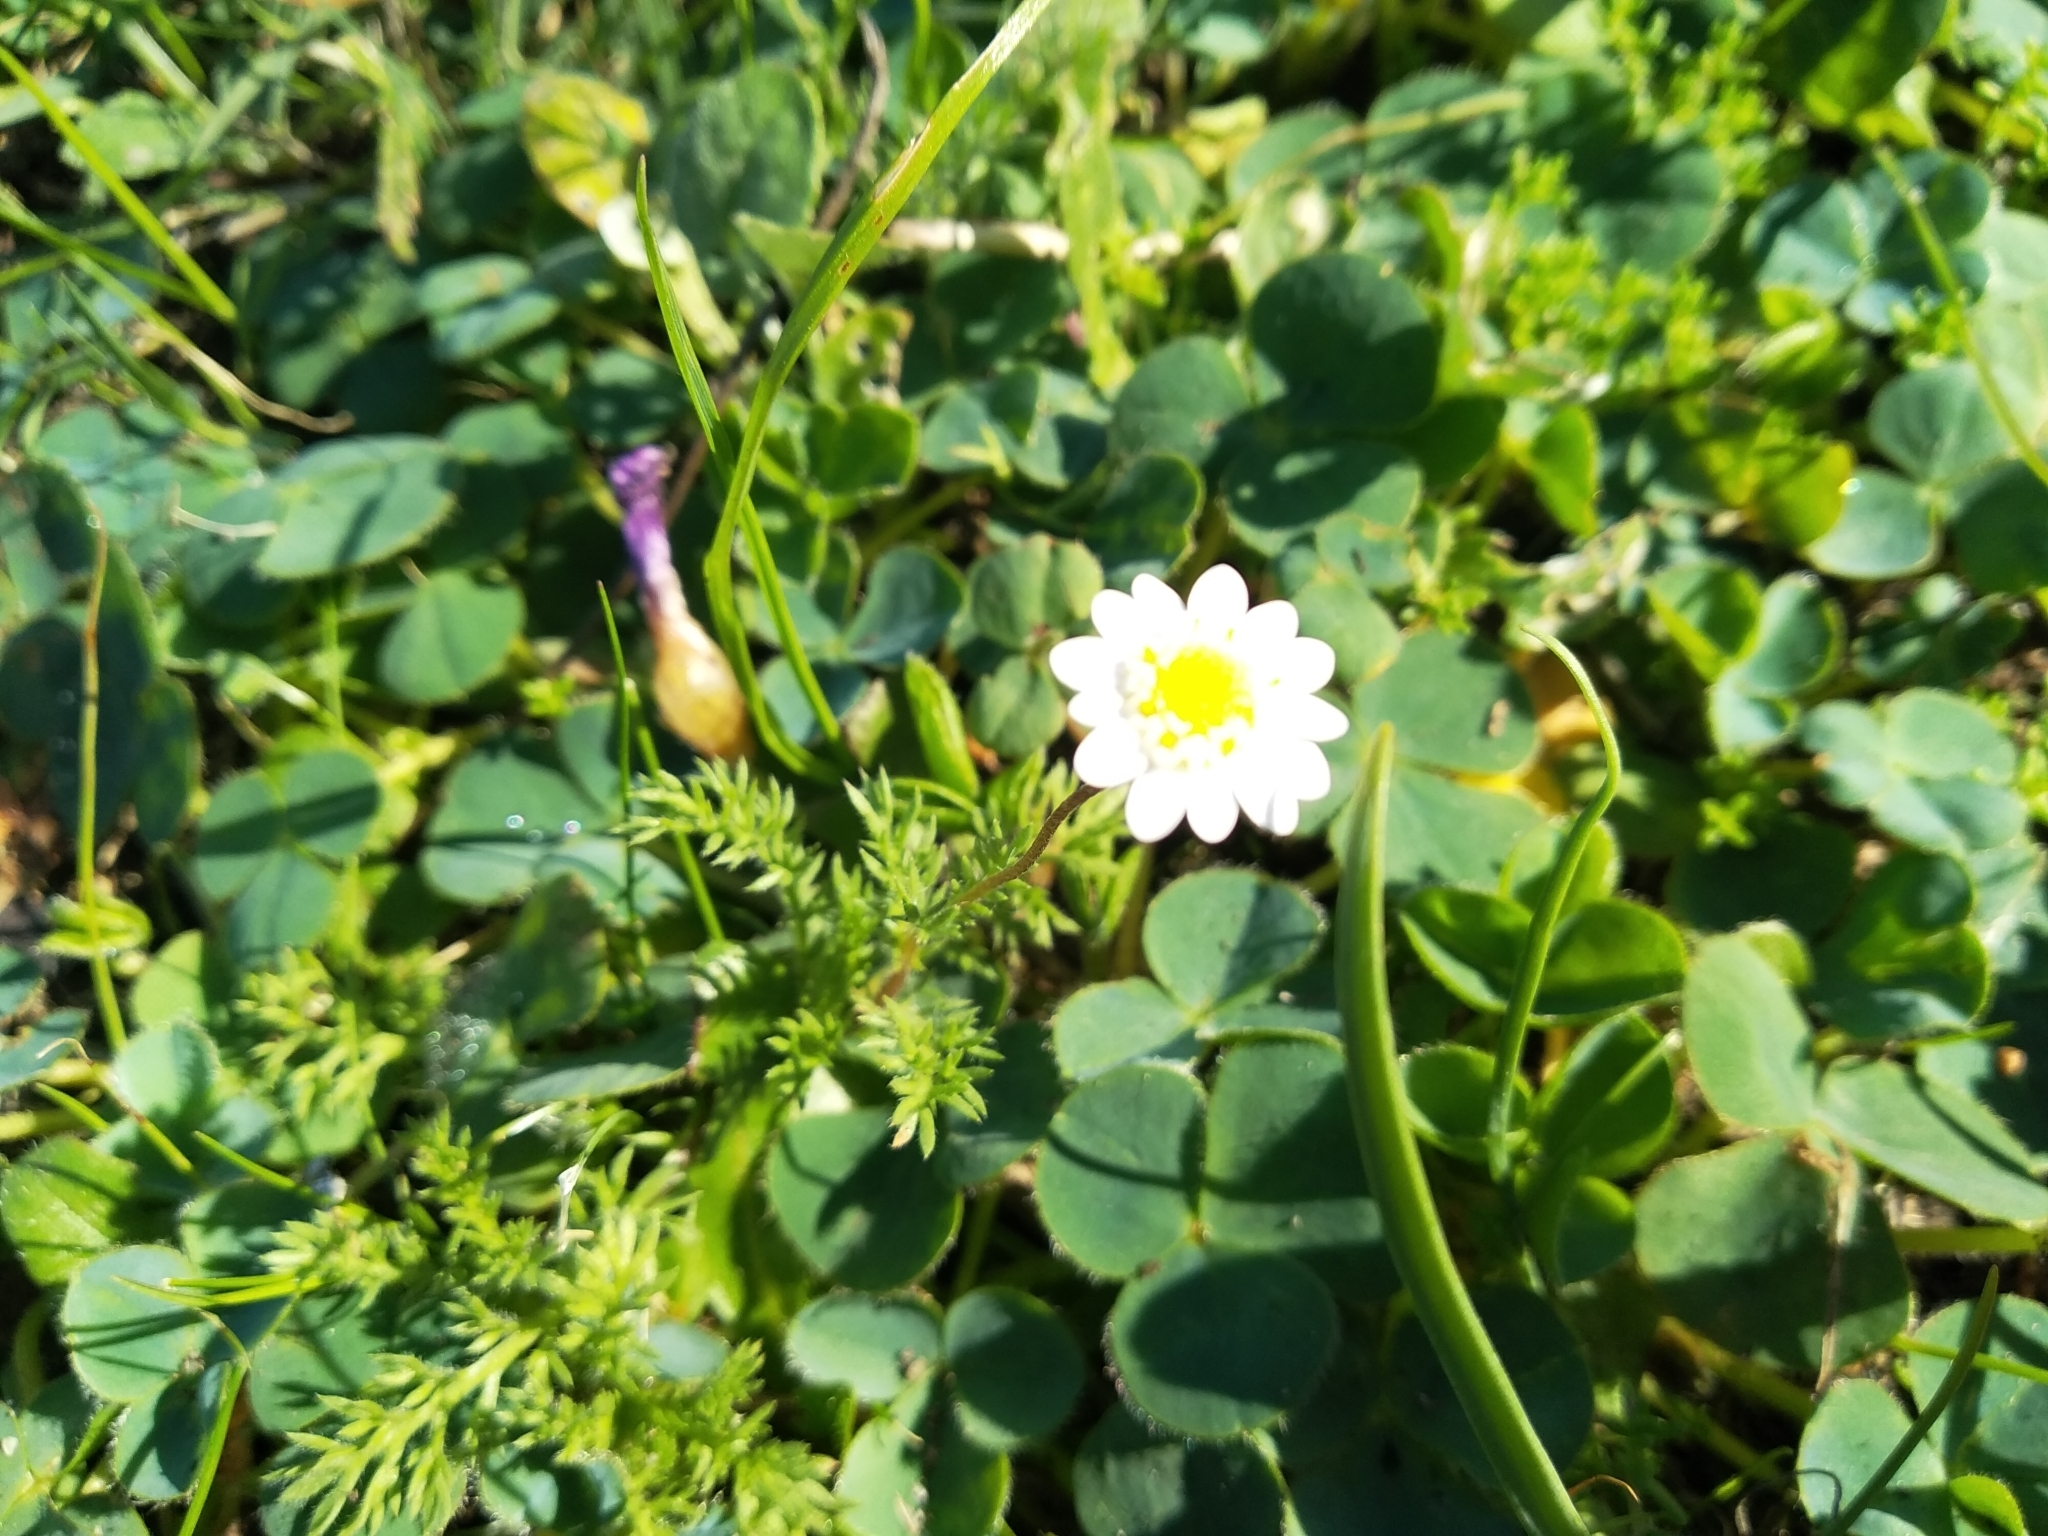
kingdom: Plantae
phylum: Tracheophyta
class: Magnoliopsida
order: Asterales
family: Asteraceae
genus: Cotula
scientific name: Cotula turbinata
